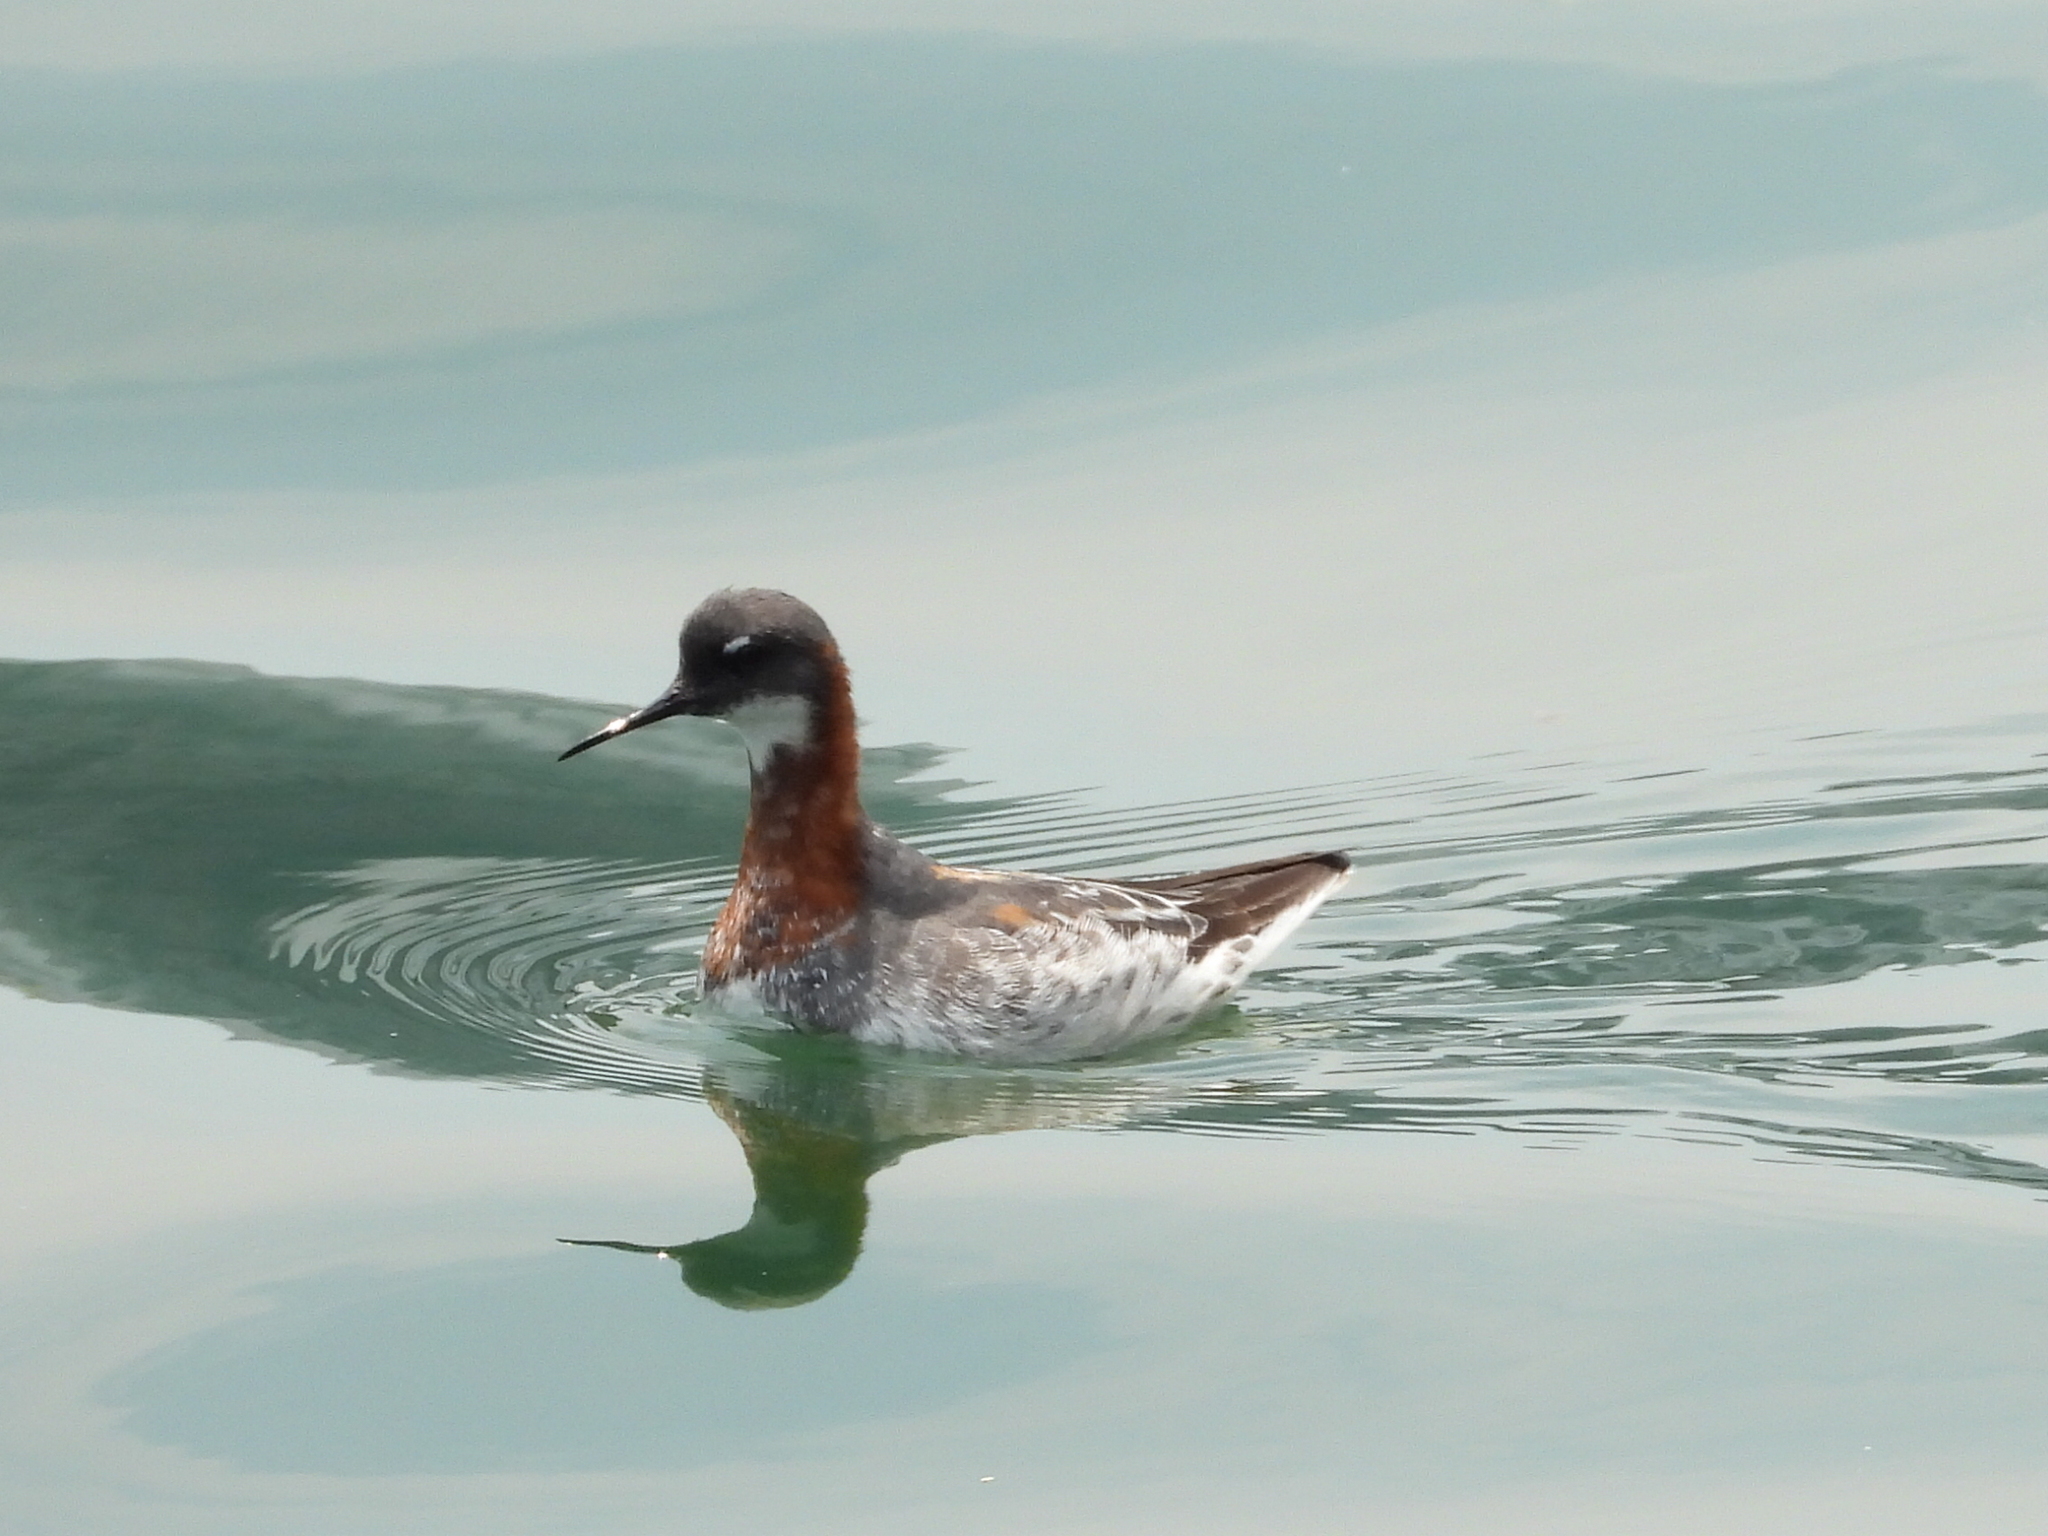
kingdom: Animalia
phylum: Chordata
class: Aves
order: Charadriiformes
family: Scolopacidae
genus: Phalaropus
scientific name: Phalaropus lobatus
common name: Red-necked phalarope
